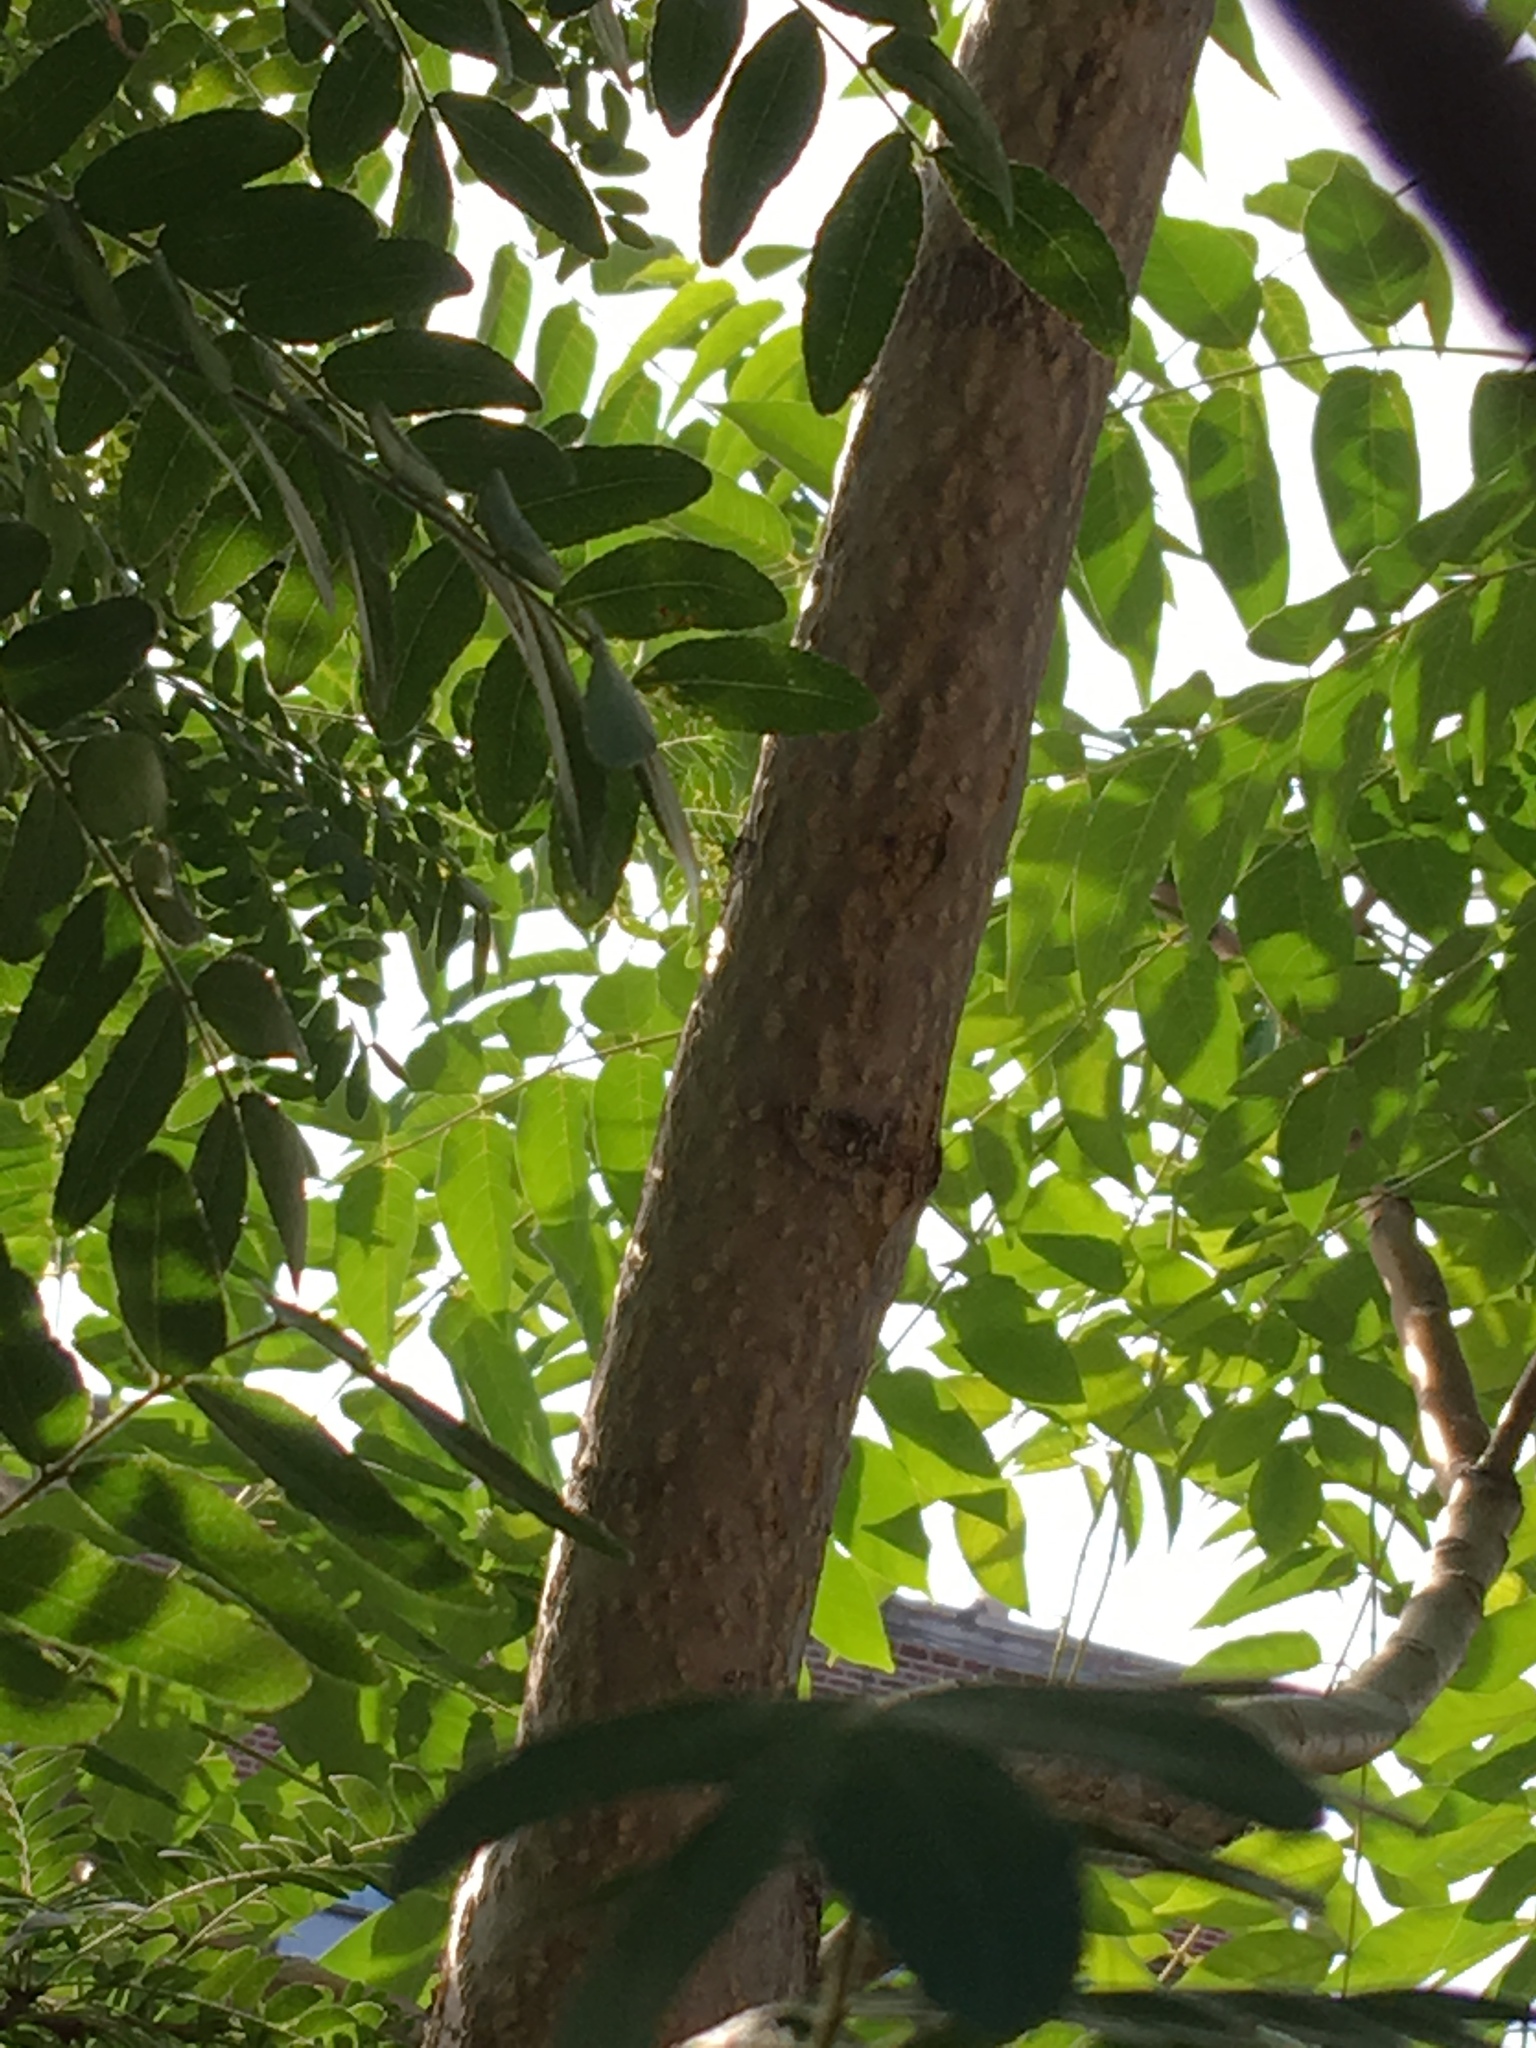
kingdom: Plantae
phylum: Tracheophyta
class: Magnoliopsida
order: Sapindales
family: Simaroubaceae
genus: Ailanthus
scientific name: Ailanthus altissima
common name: Tree-of-heaven
